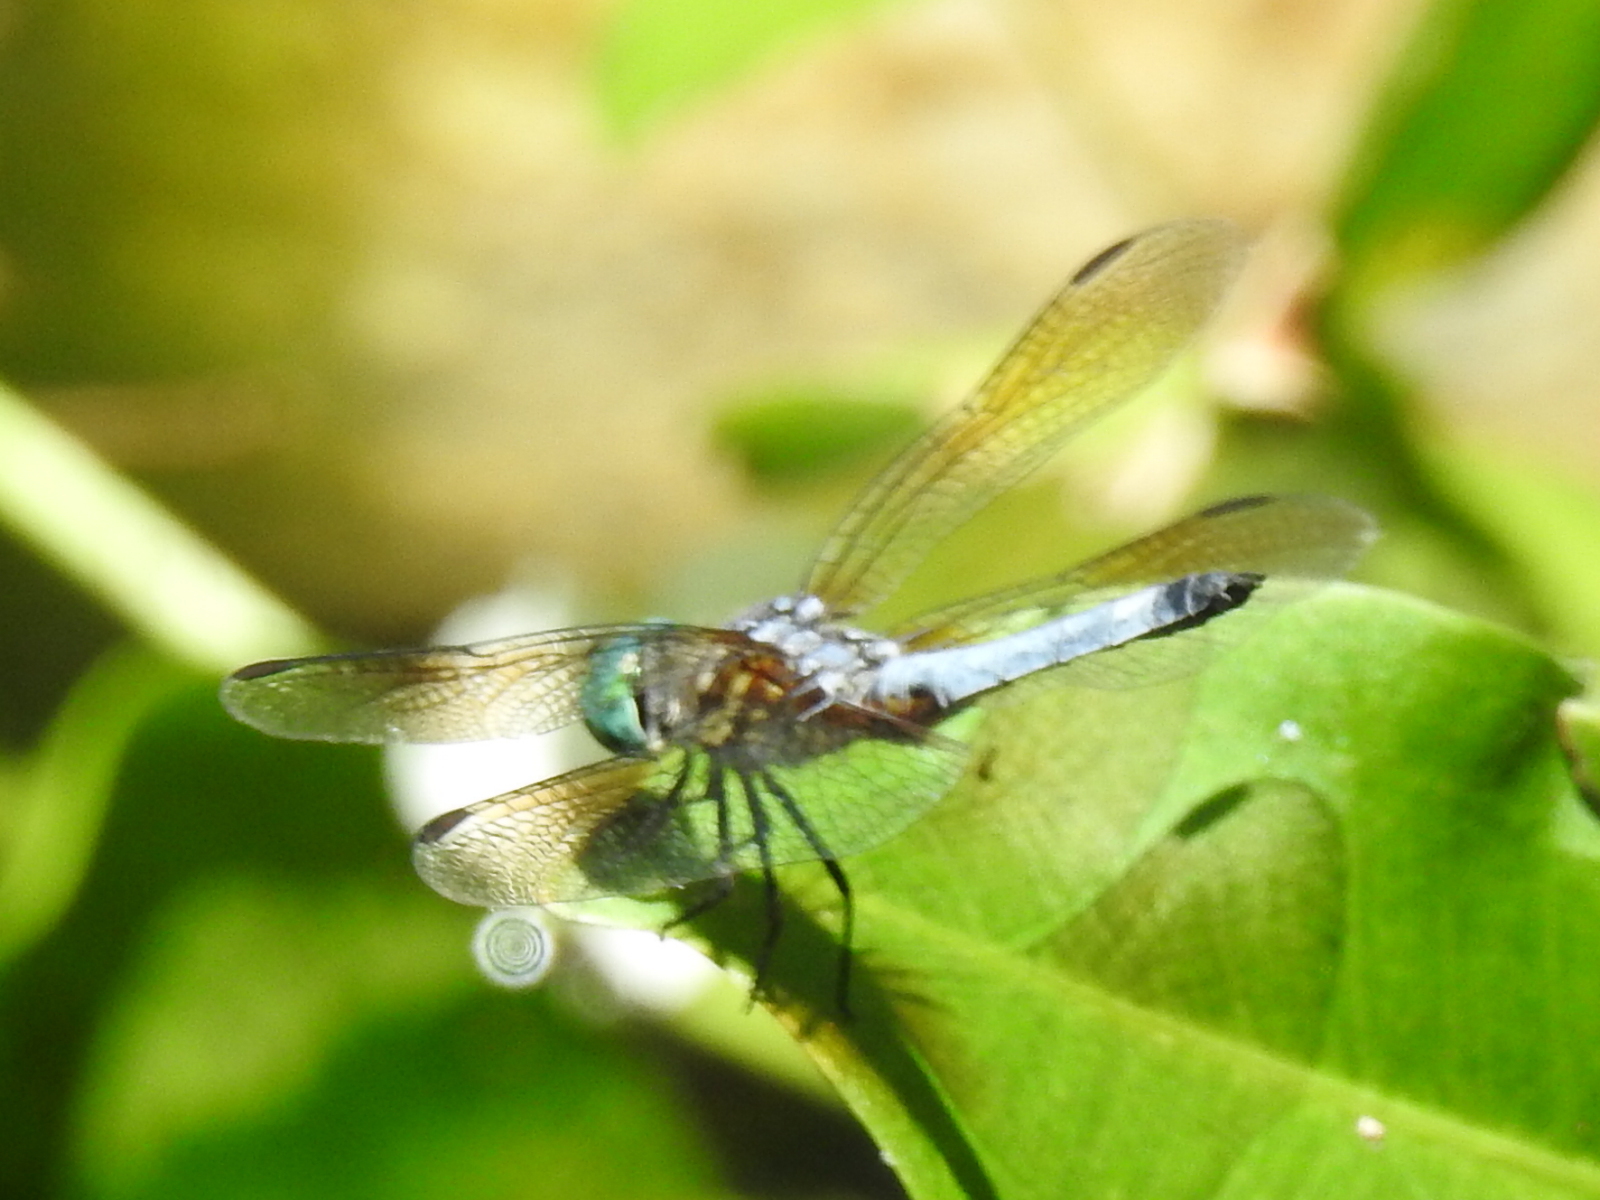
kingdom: Animalia
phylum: Arthropoda
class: Insecta
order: Odonata
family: Libellulidae
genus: Pachydiplax
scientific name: Pachydiplax longipennis
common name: Blue dasher
